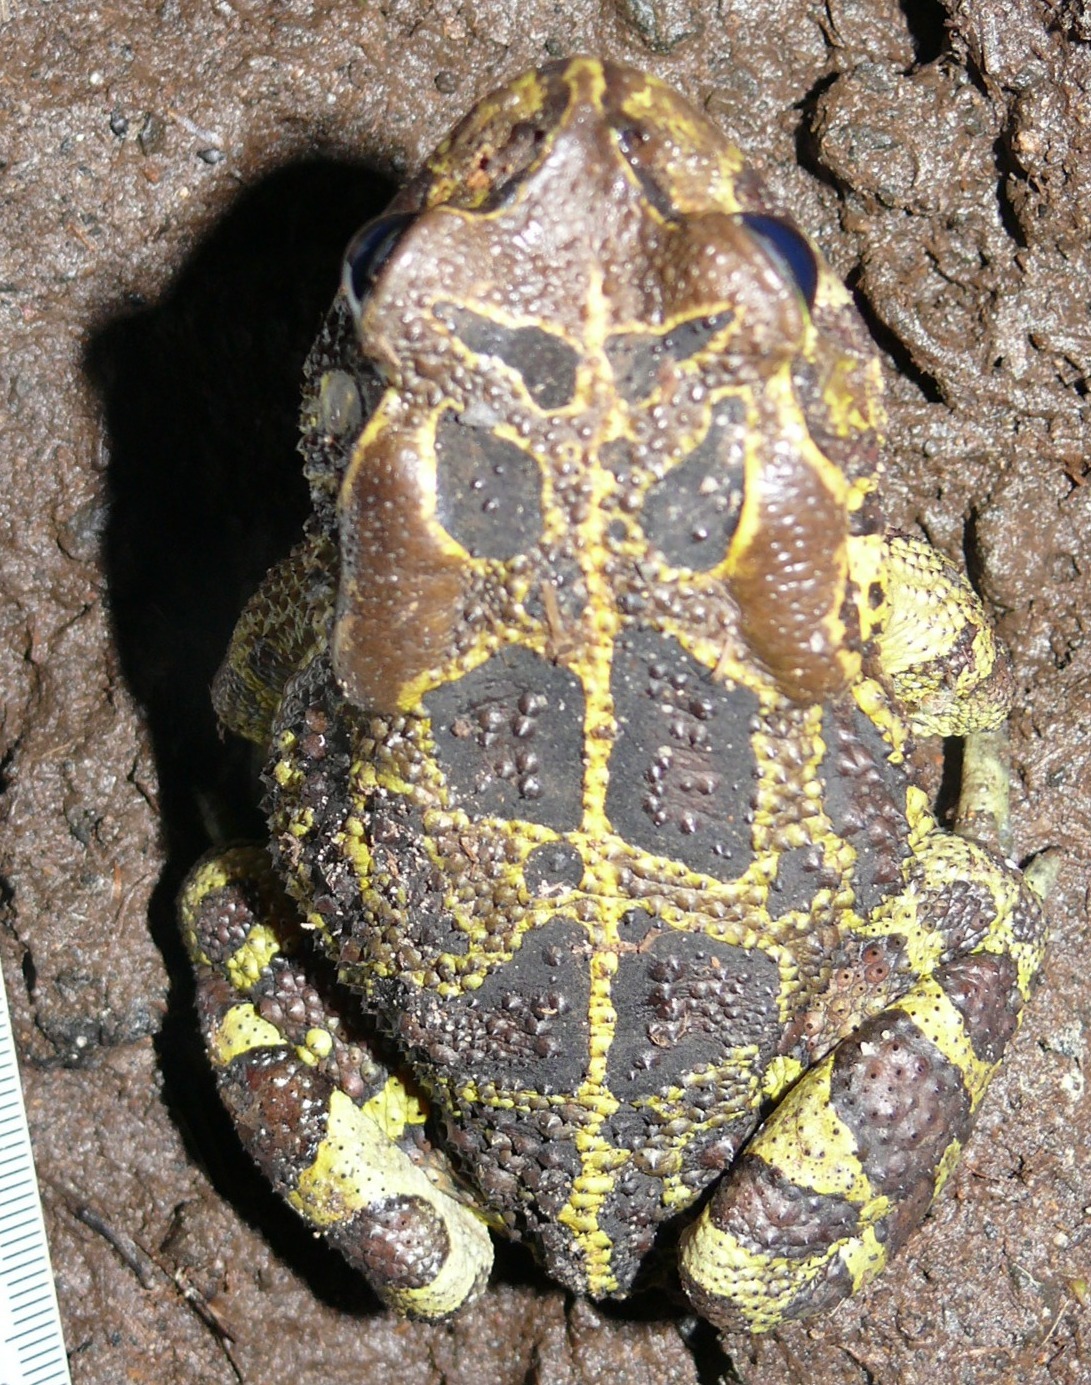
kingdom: Animalia
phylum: Chordata
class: Amphibia
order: Anura
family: Bufonidae
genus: Sclerophrys
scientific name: Sclerophrys pantherina
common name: Panther toad
